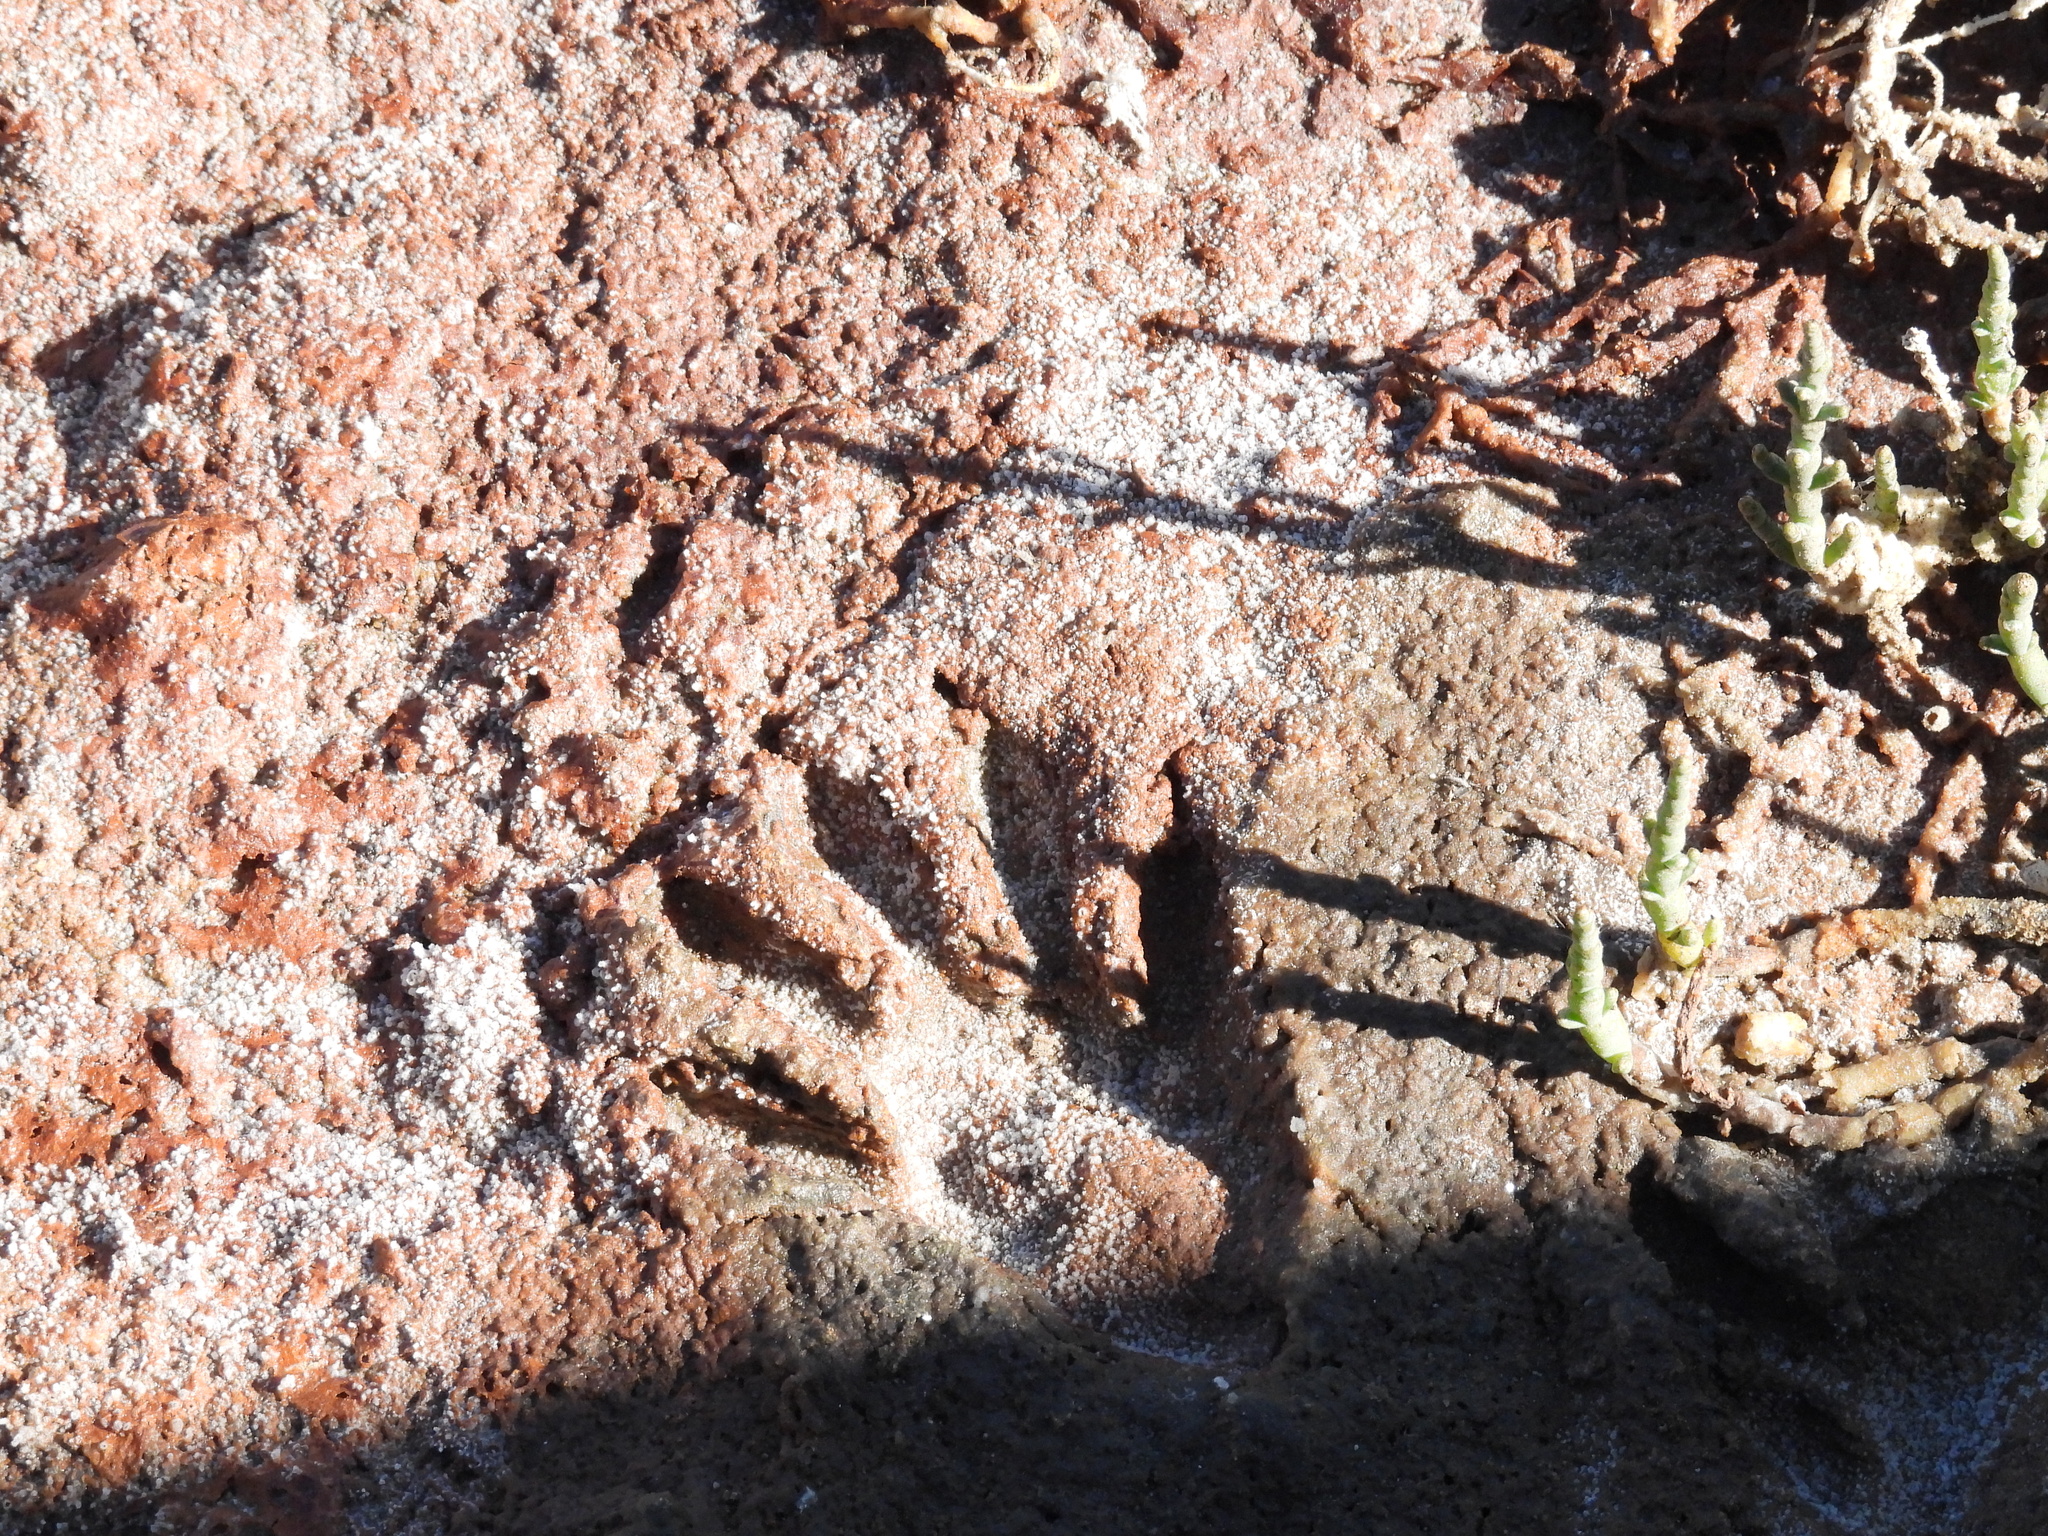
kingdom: Animalia
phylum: Chordata
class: Mammalia
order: Carnivora
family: Procyonidae
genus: Procyon
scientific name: Procyon lotor
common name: Raccoon
